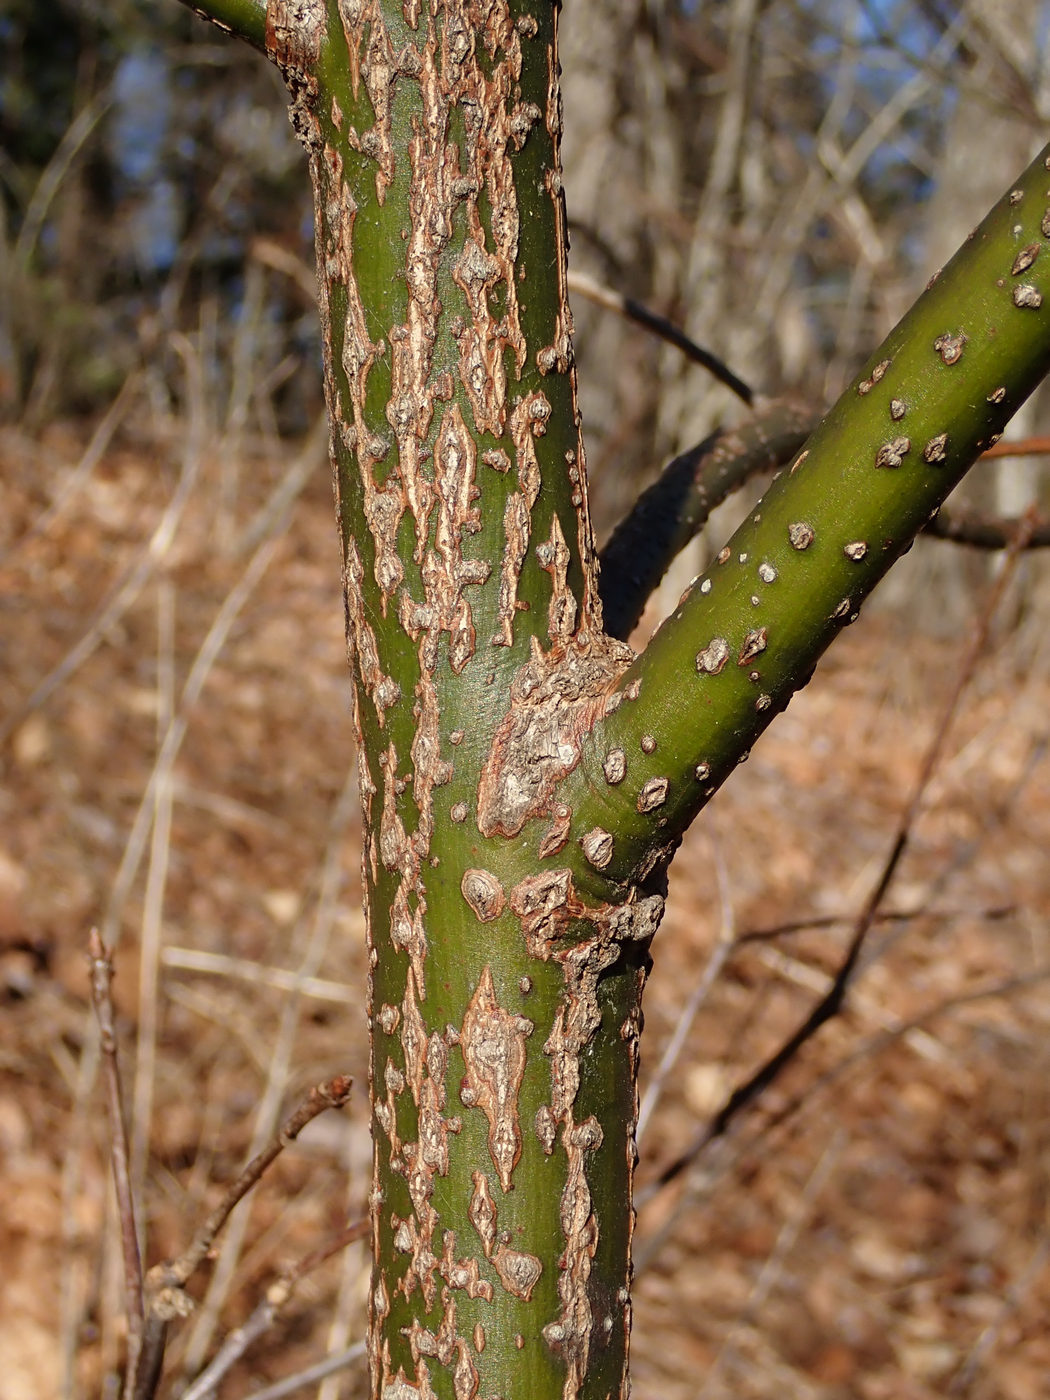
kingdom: Plantae
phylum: Tracheophyta
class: Magnoliopsida
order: Laurales
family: Lauraceae
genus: Sassafras
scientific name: Sassafras albidum
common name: Sassafras
